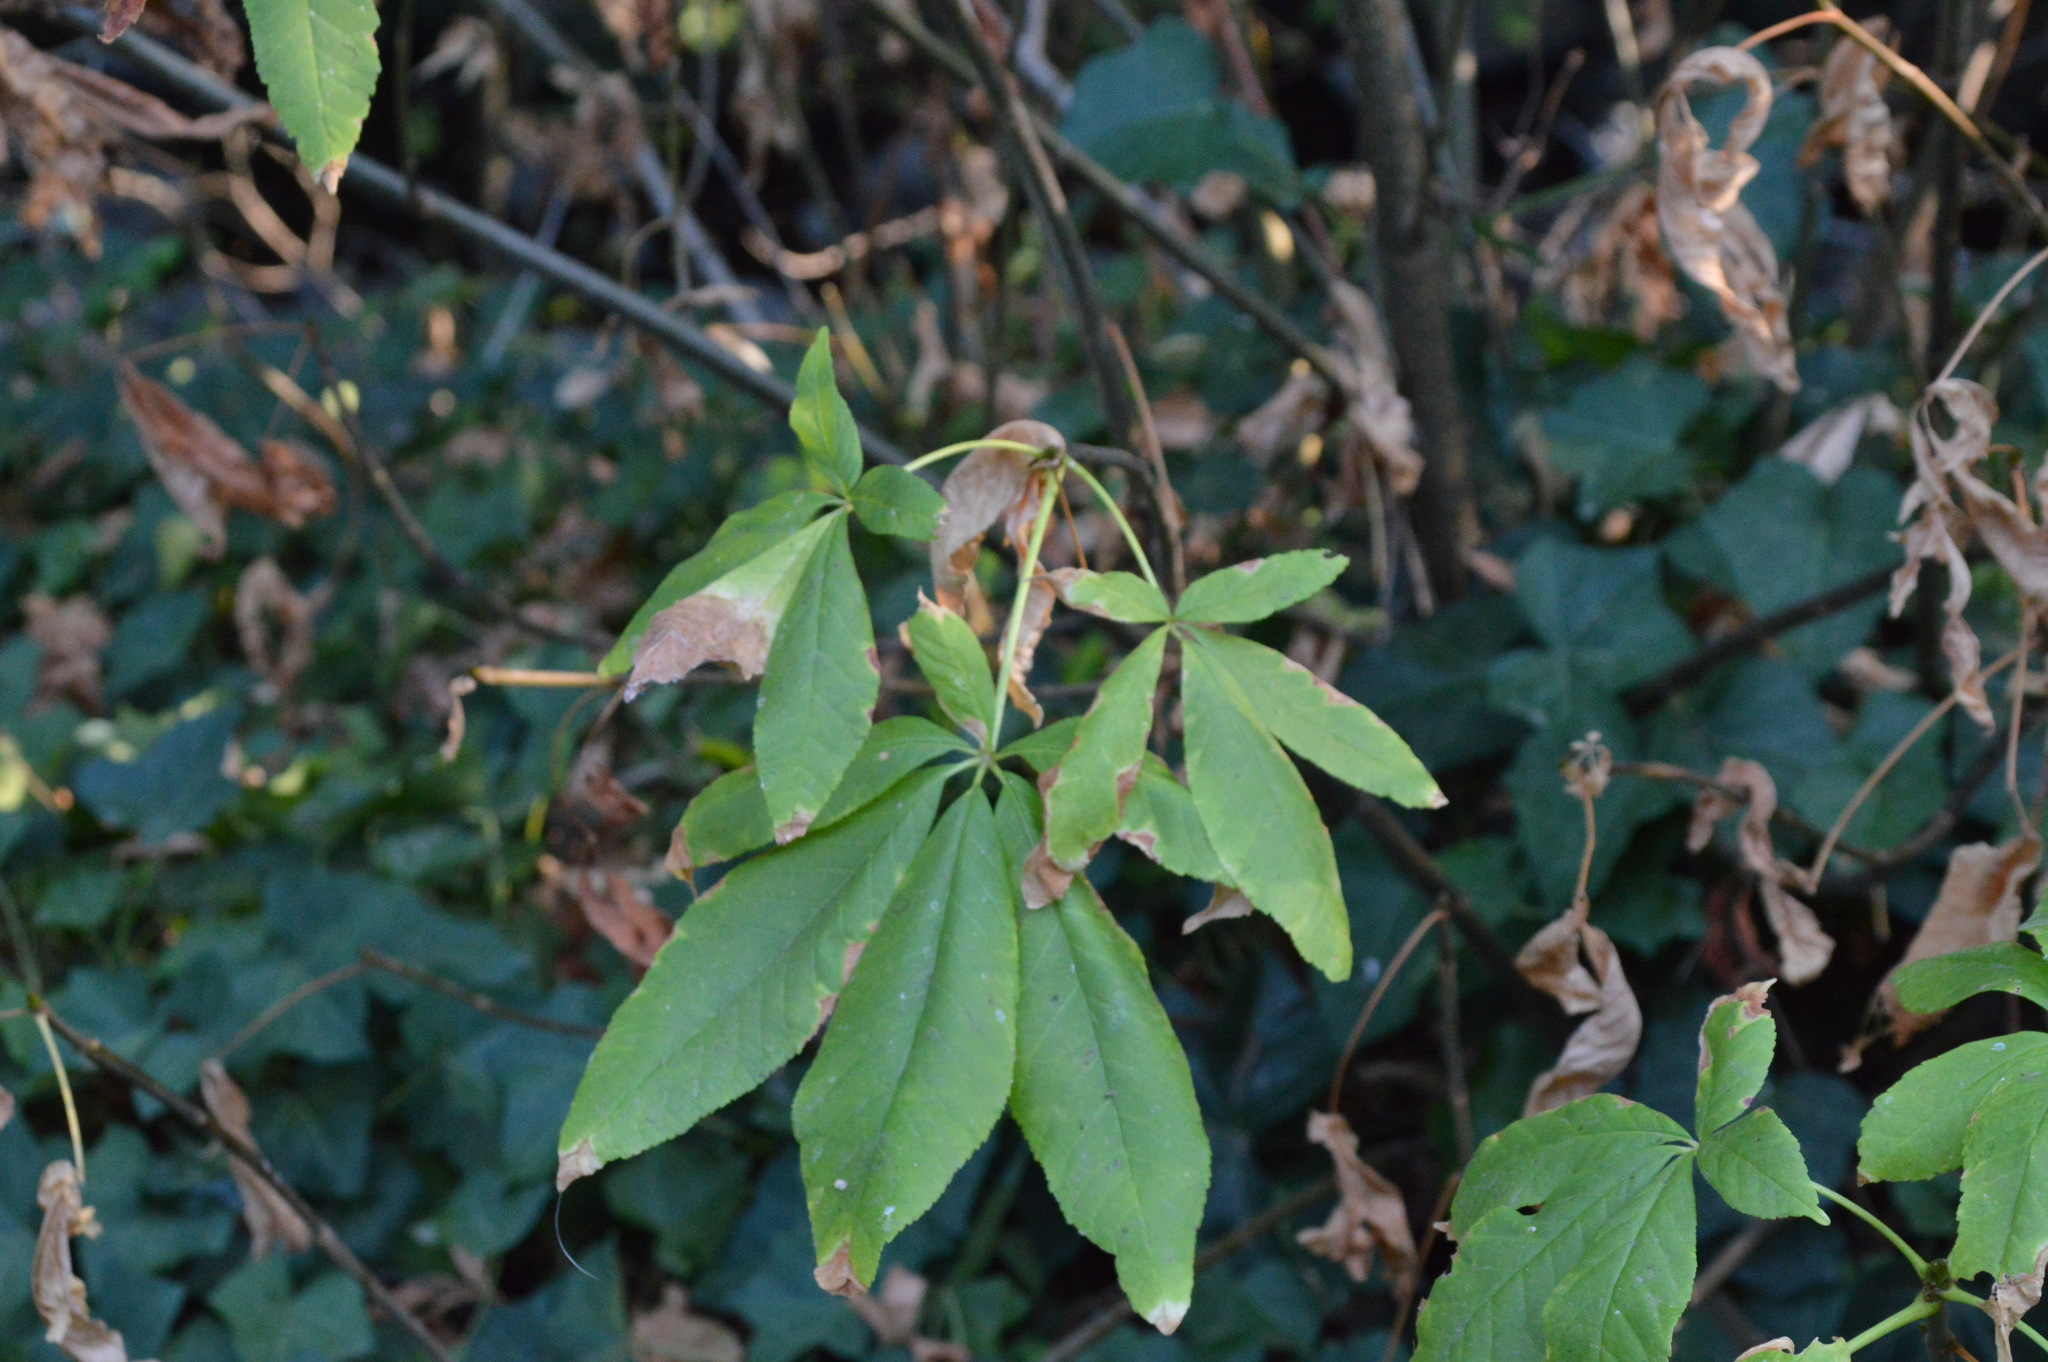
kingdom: Plantae
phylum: Tracheophyta
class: Magnoliopsida
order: Sapindales
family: Sapindaceae
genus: Aesculus
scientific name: Aesculus californica
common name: California buckeye
